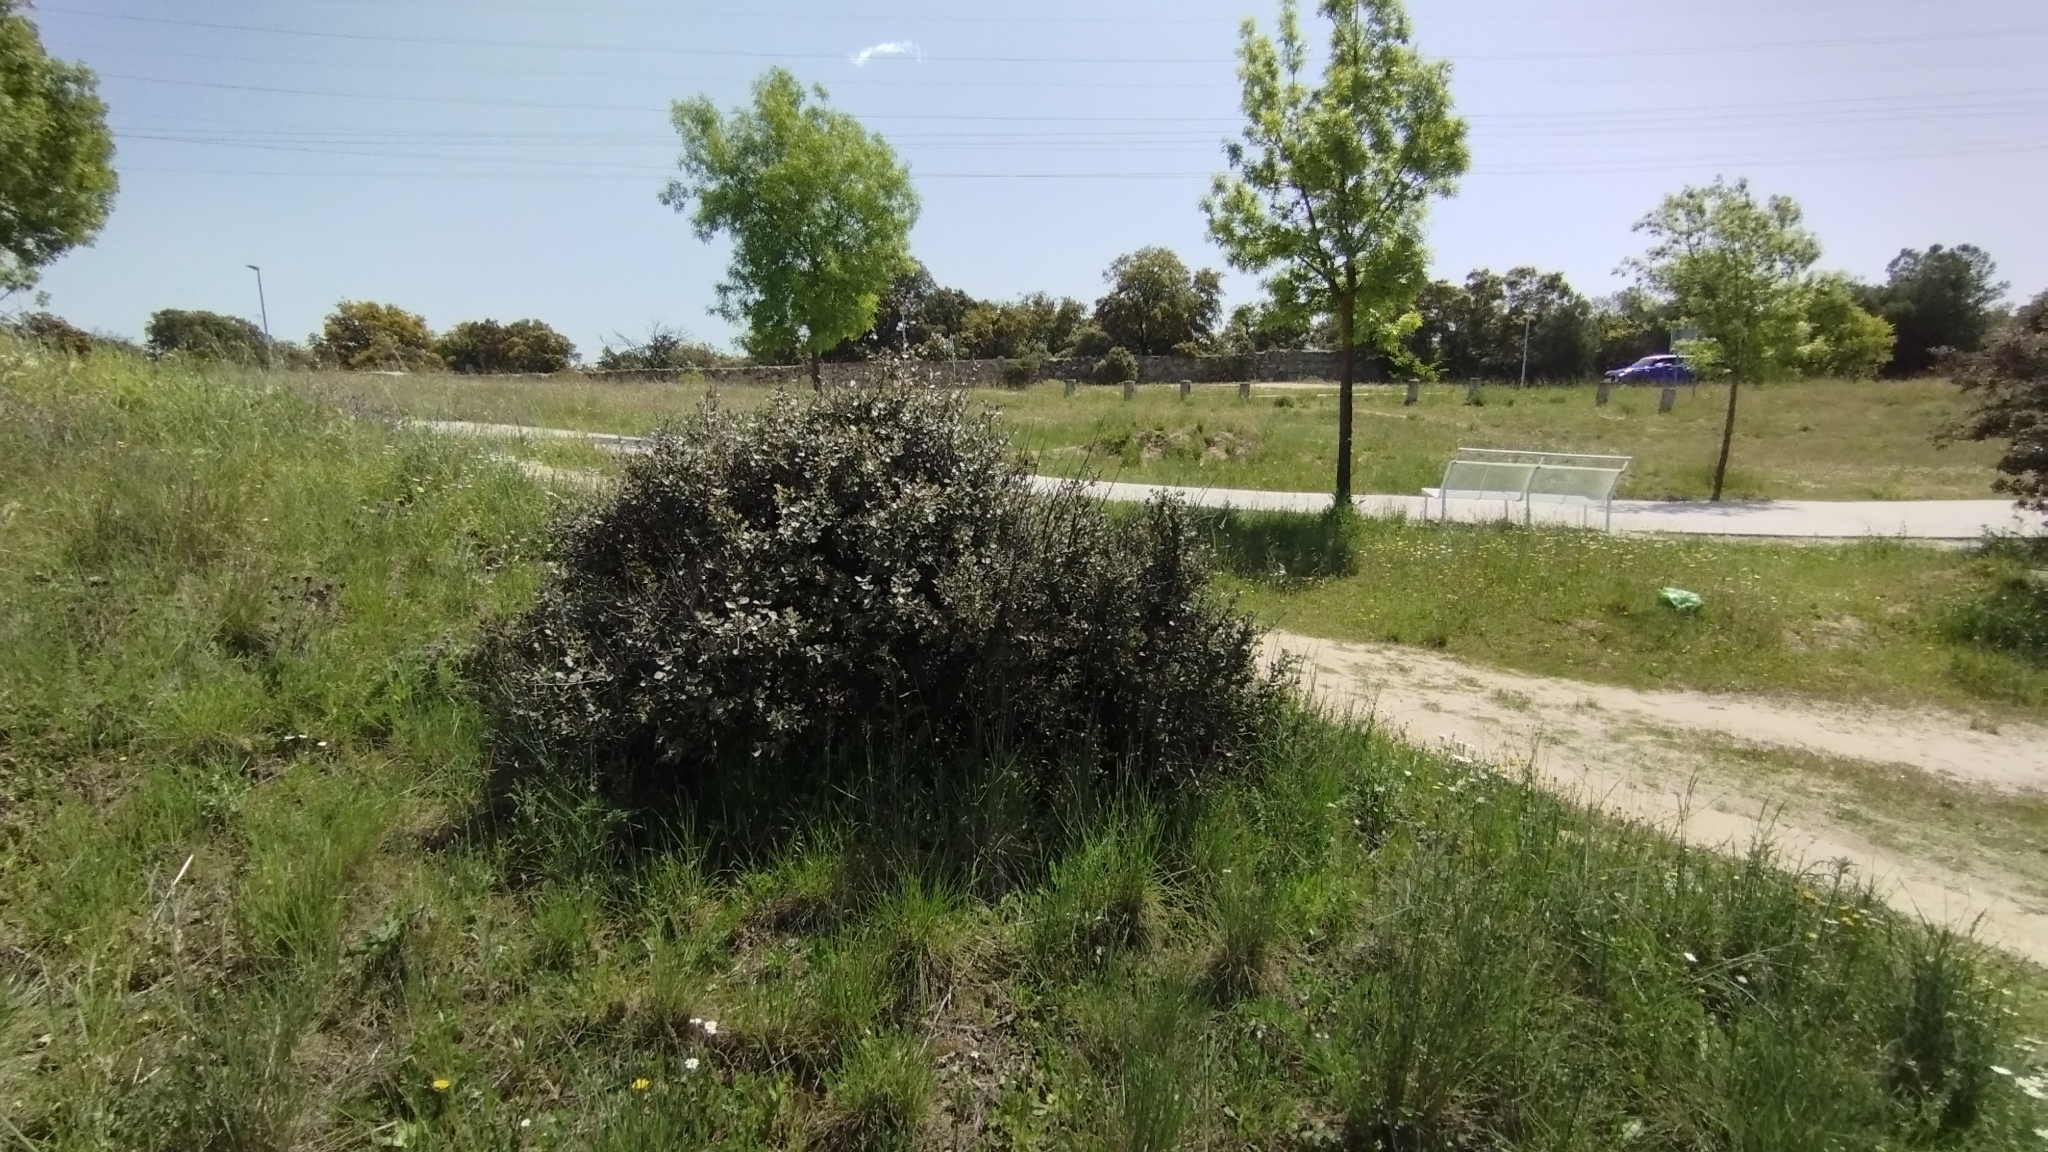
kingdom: Plantae
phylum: Tracheophyta
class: Magnoliopsida
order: Fagales
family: Fagaceae
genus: Quercus
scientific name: Quercus rotundifolia
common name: Holm oak
